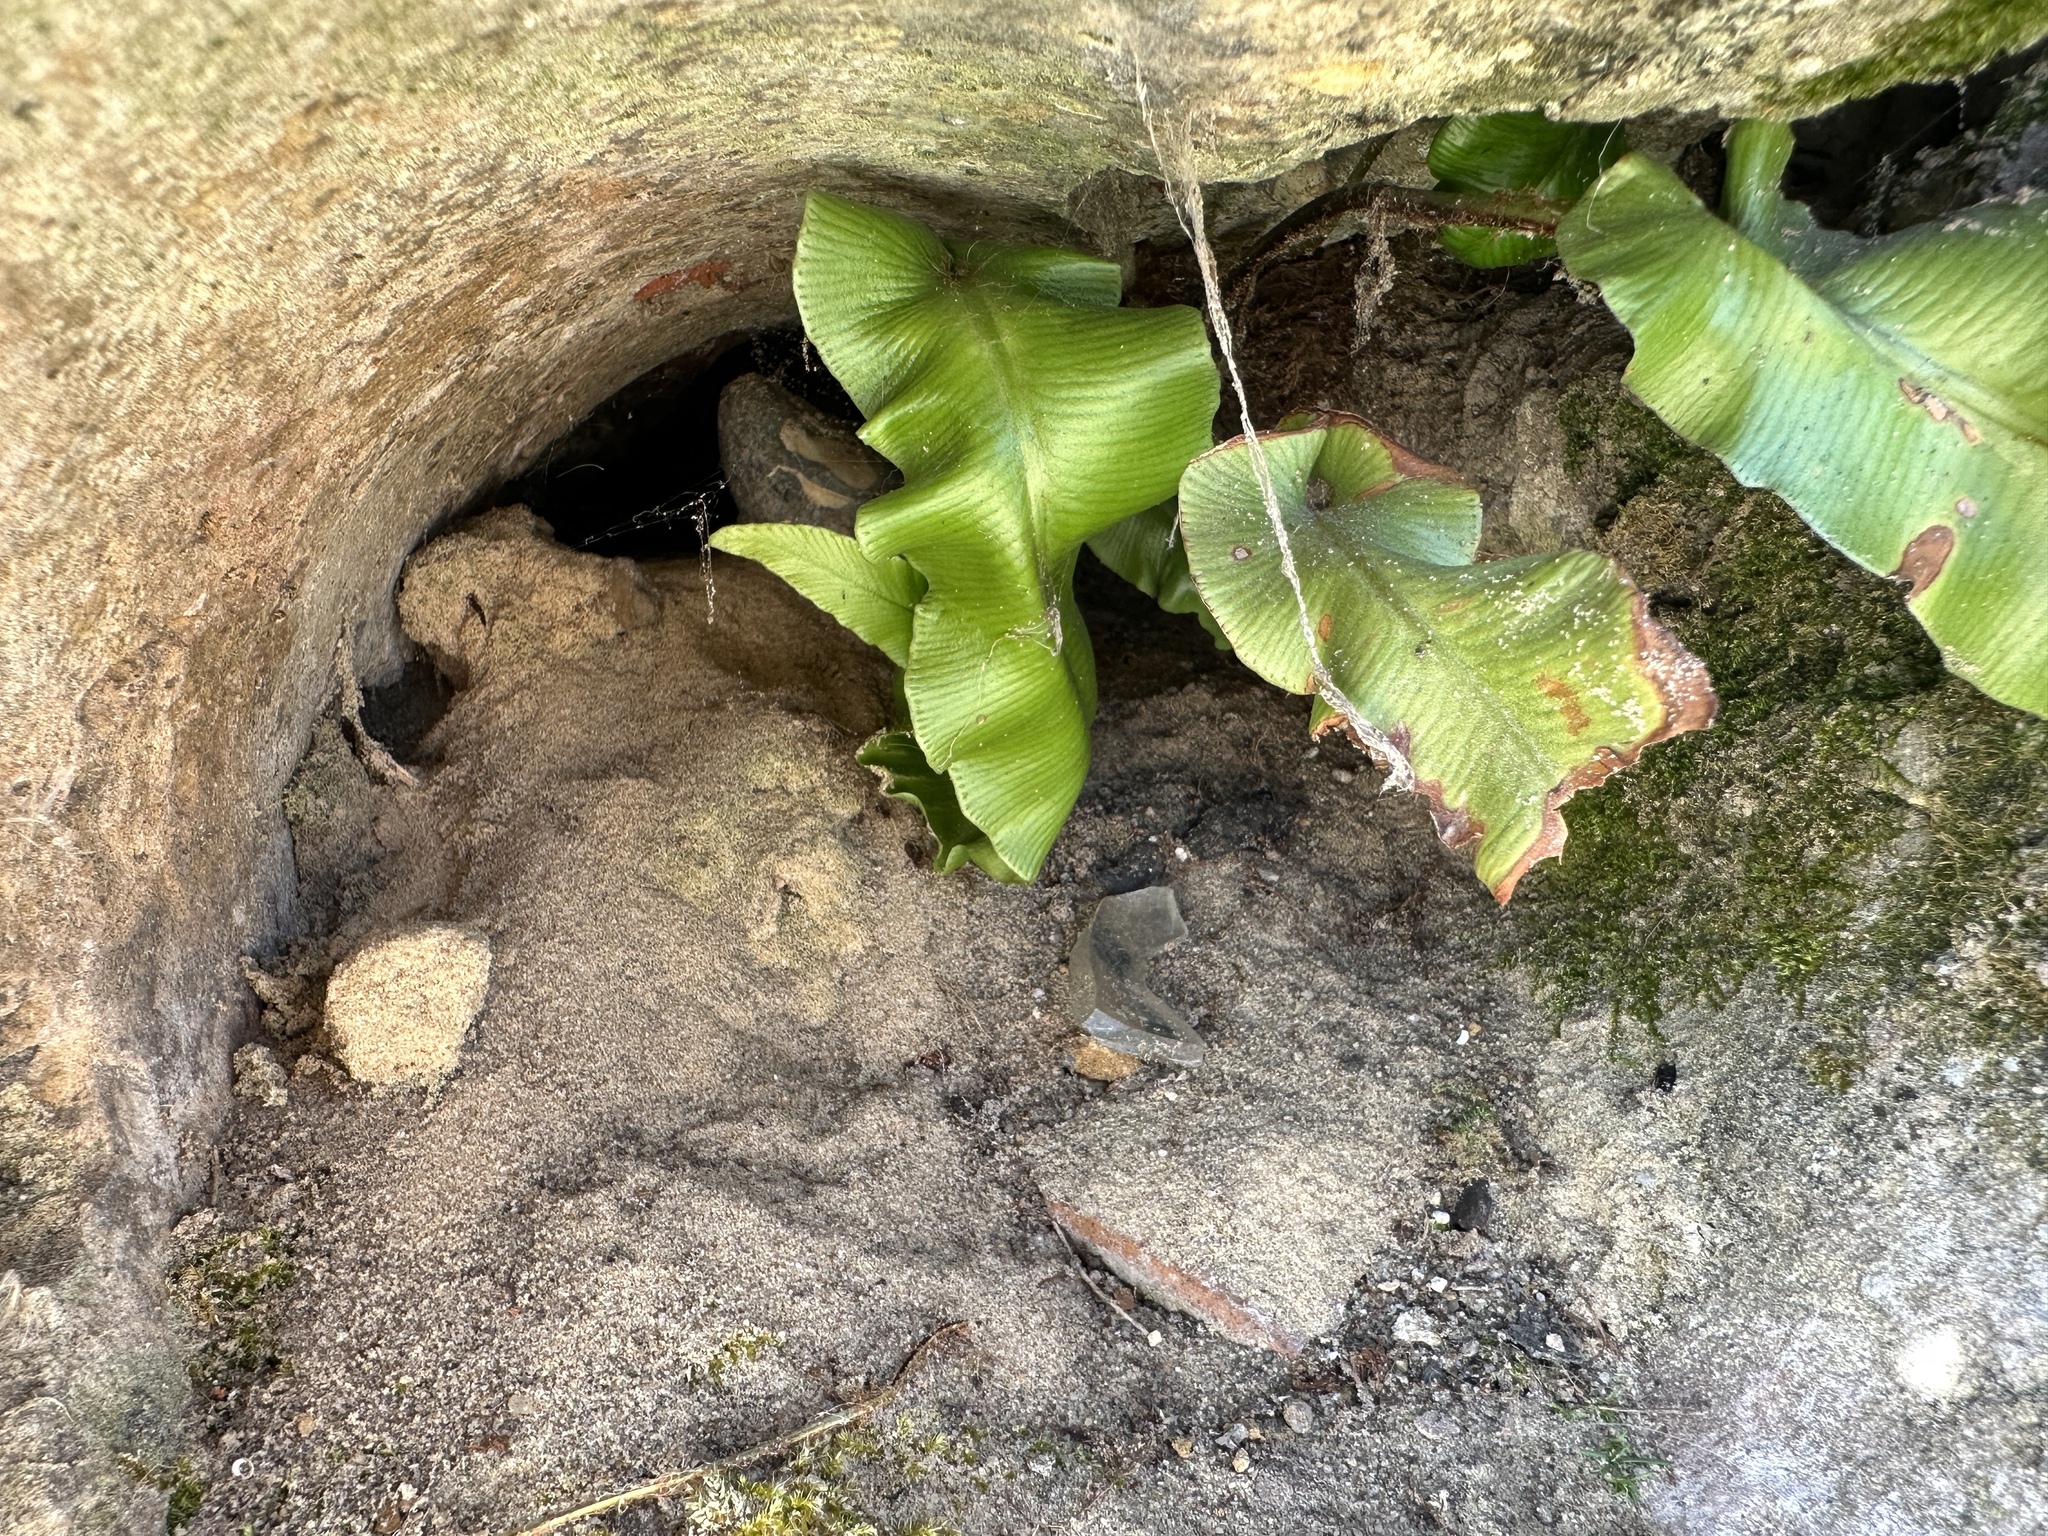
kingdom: Plantae
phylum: Tracheophyta
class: Polypodiopsida
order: Polypodiales
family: Aspleniaceae
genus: Asplenium
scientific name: Asplenium scolopendrium
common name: Hart's-tongue fern
